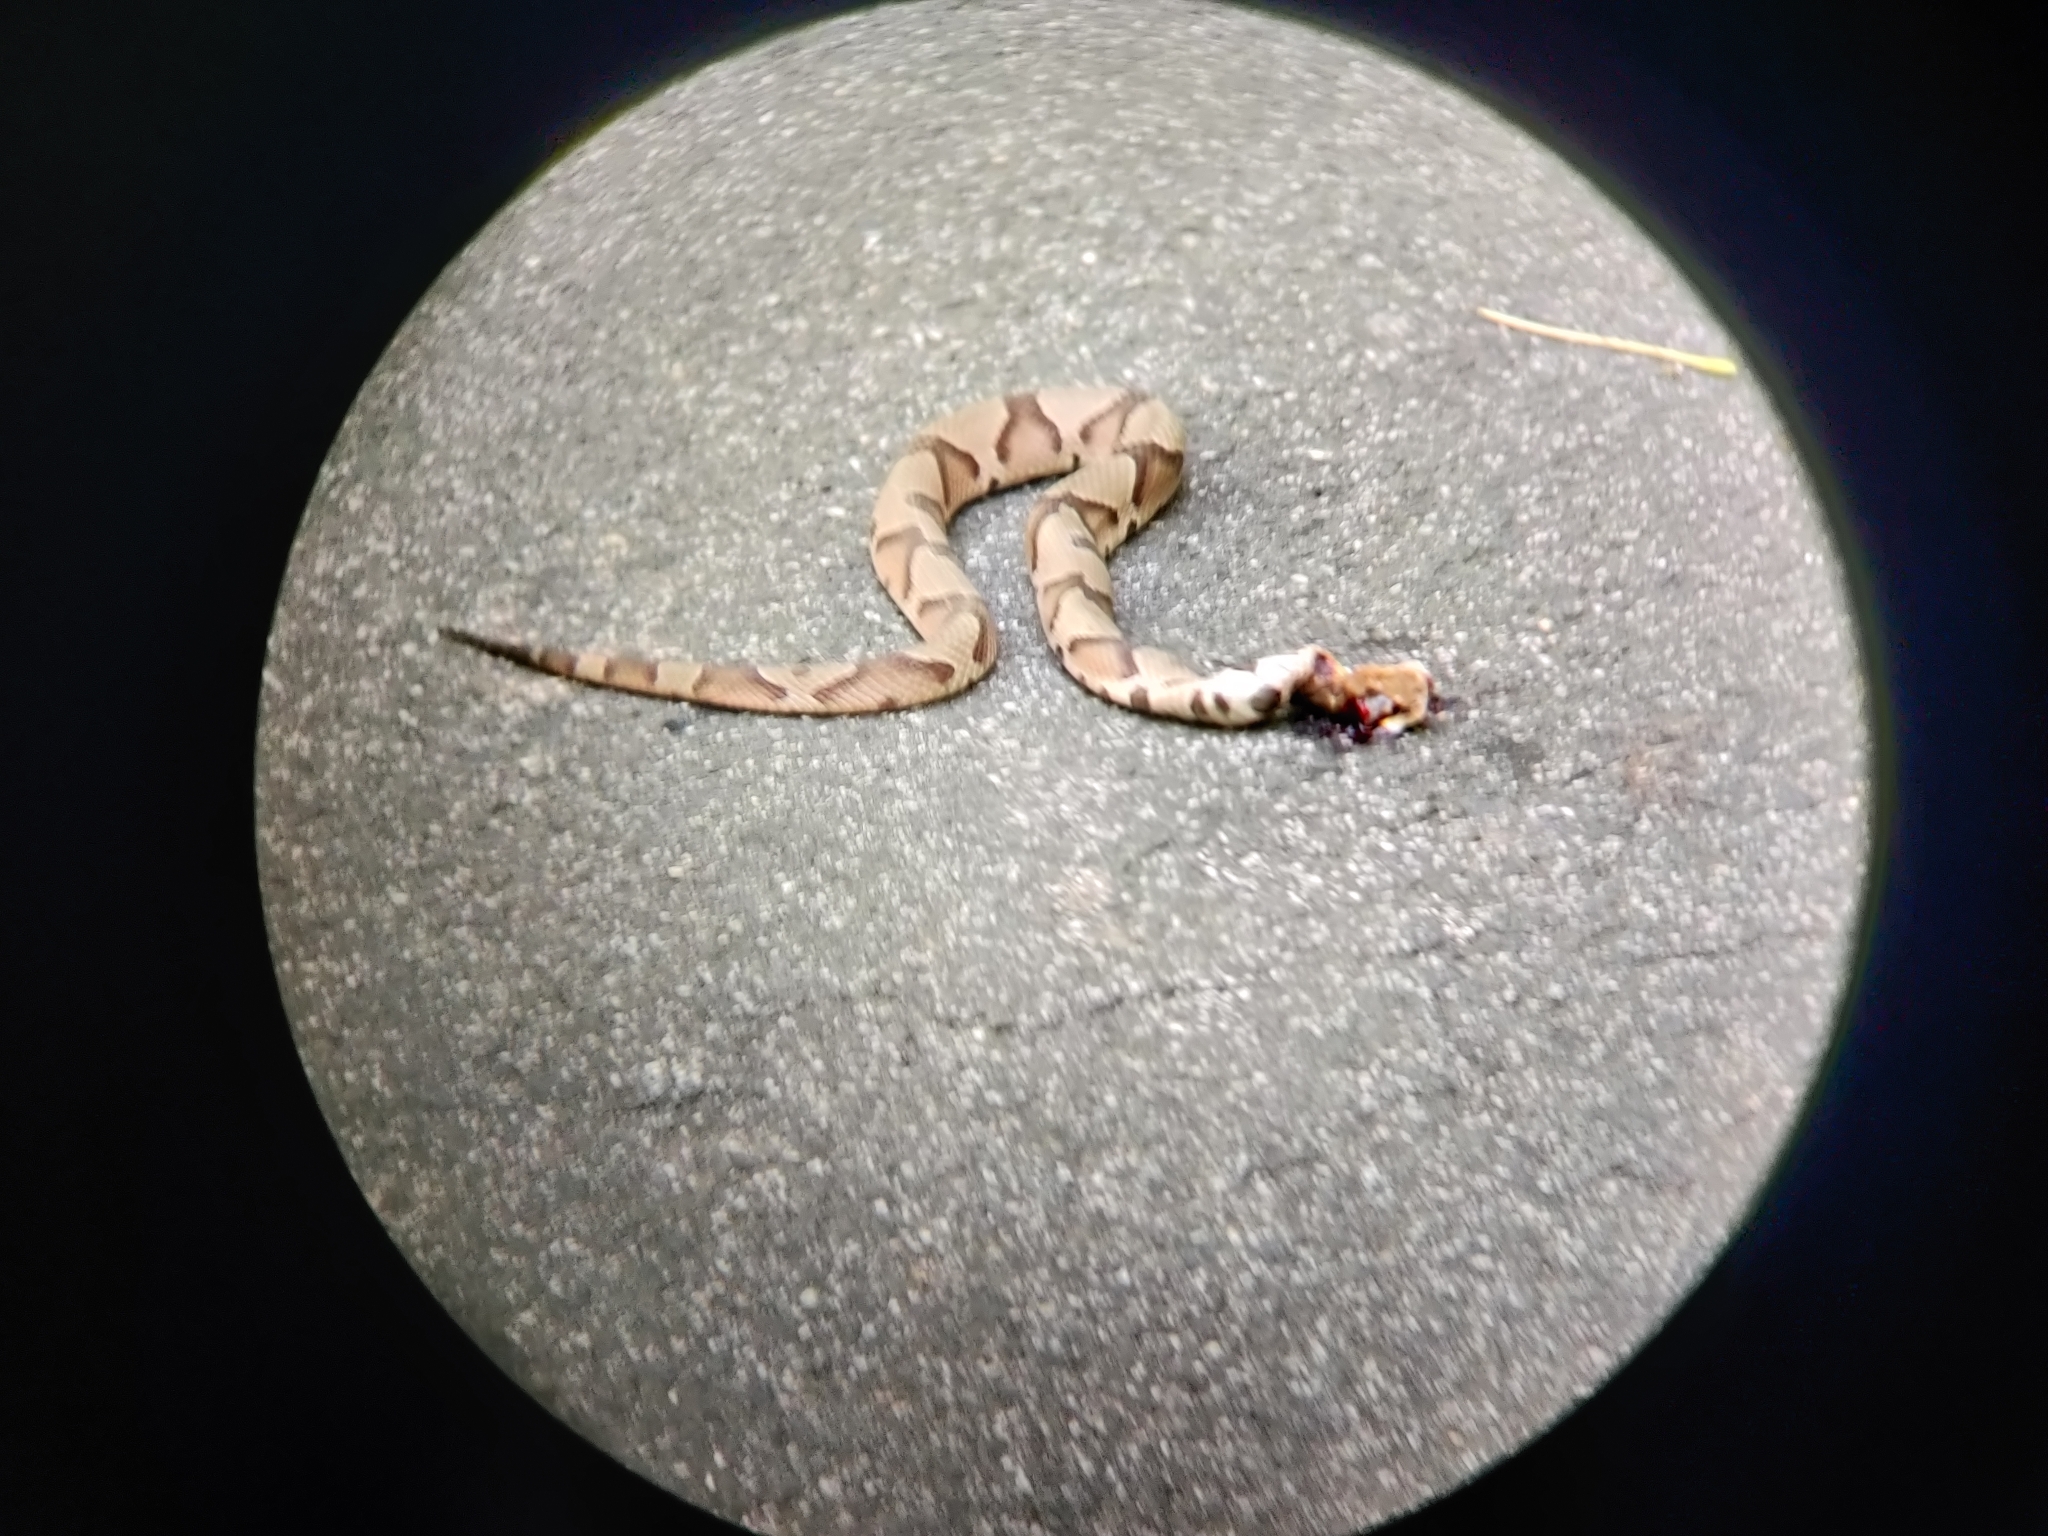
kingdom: Animalia
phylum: Chordata
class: Squamata
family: Viperidae
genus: Agkistrodon
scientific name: Agkistrodon contortrix
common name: Northern copperhead
